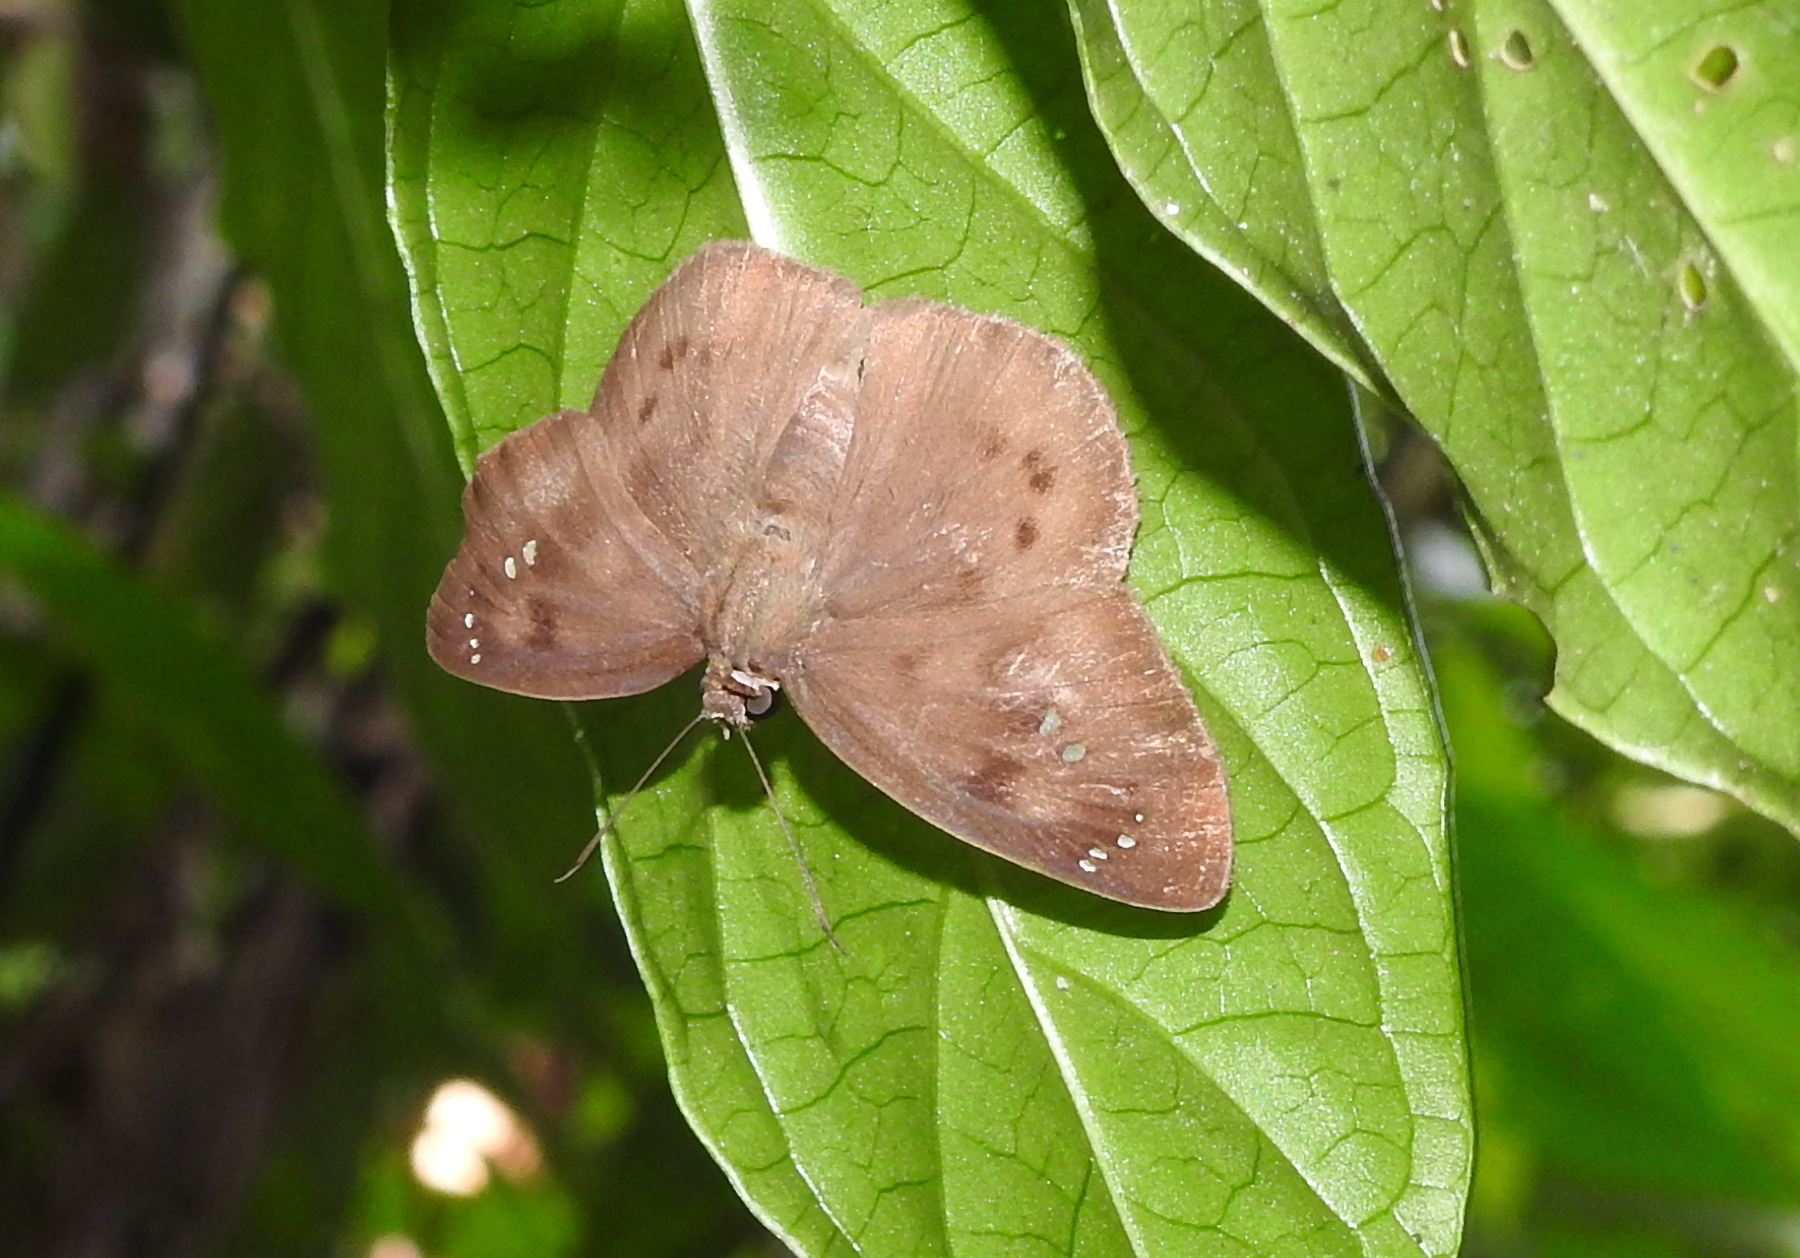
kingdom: Animalia
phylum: Arthropoda
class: Insecta
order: Lepidoptera
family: Hesperiidae
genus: Tagiades
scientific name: Tagiades japetus
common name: Pied flat
